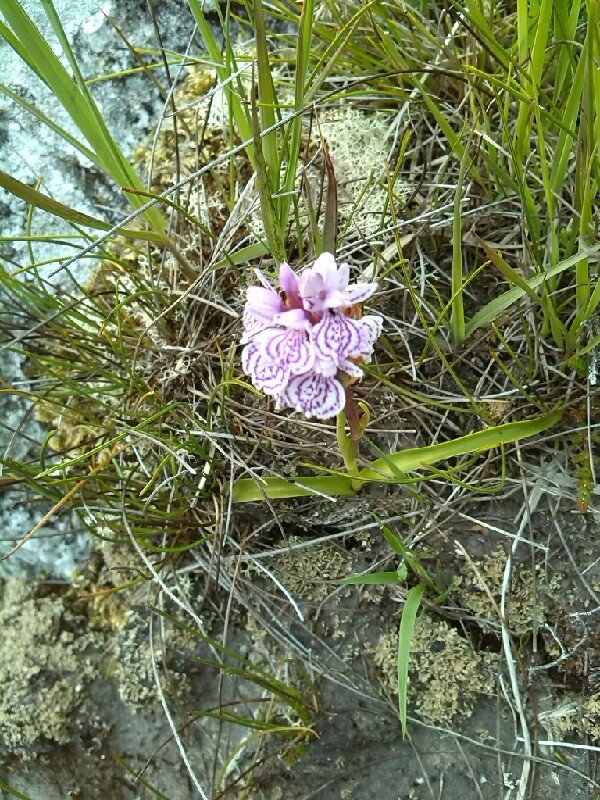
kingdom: Plantae
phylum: Tracheophyta
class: Liliopsida
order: Asparagales
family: Orchidaceae
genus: Dactylorhiza
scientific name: Dactylorhiza maculata
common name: Heath spotted-orchid
